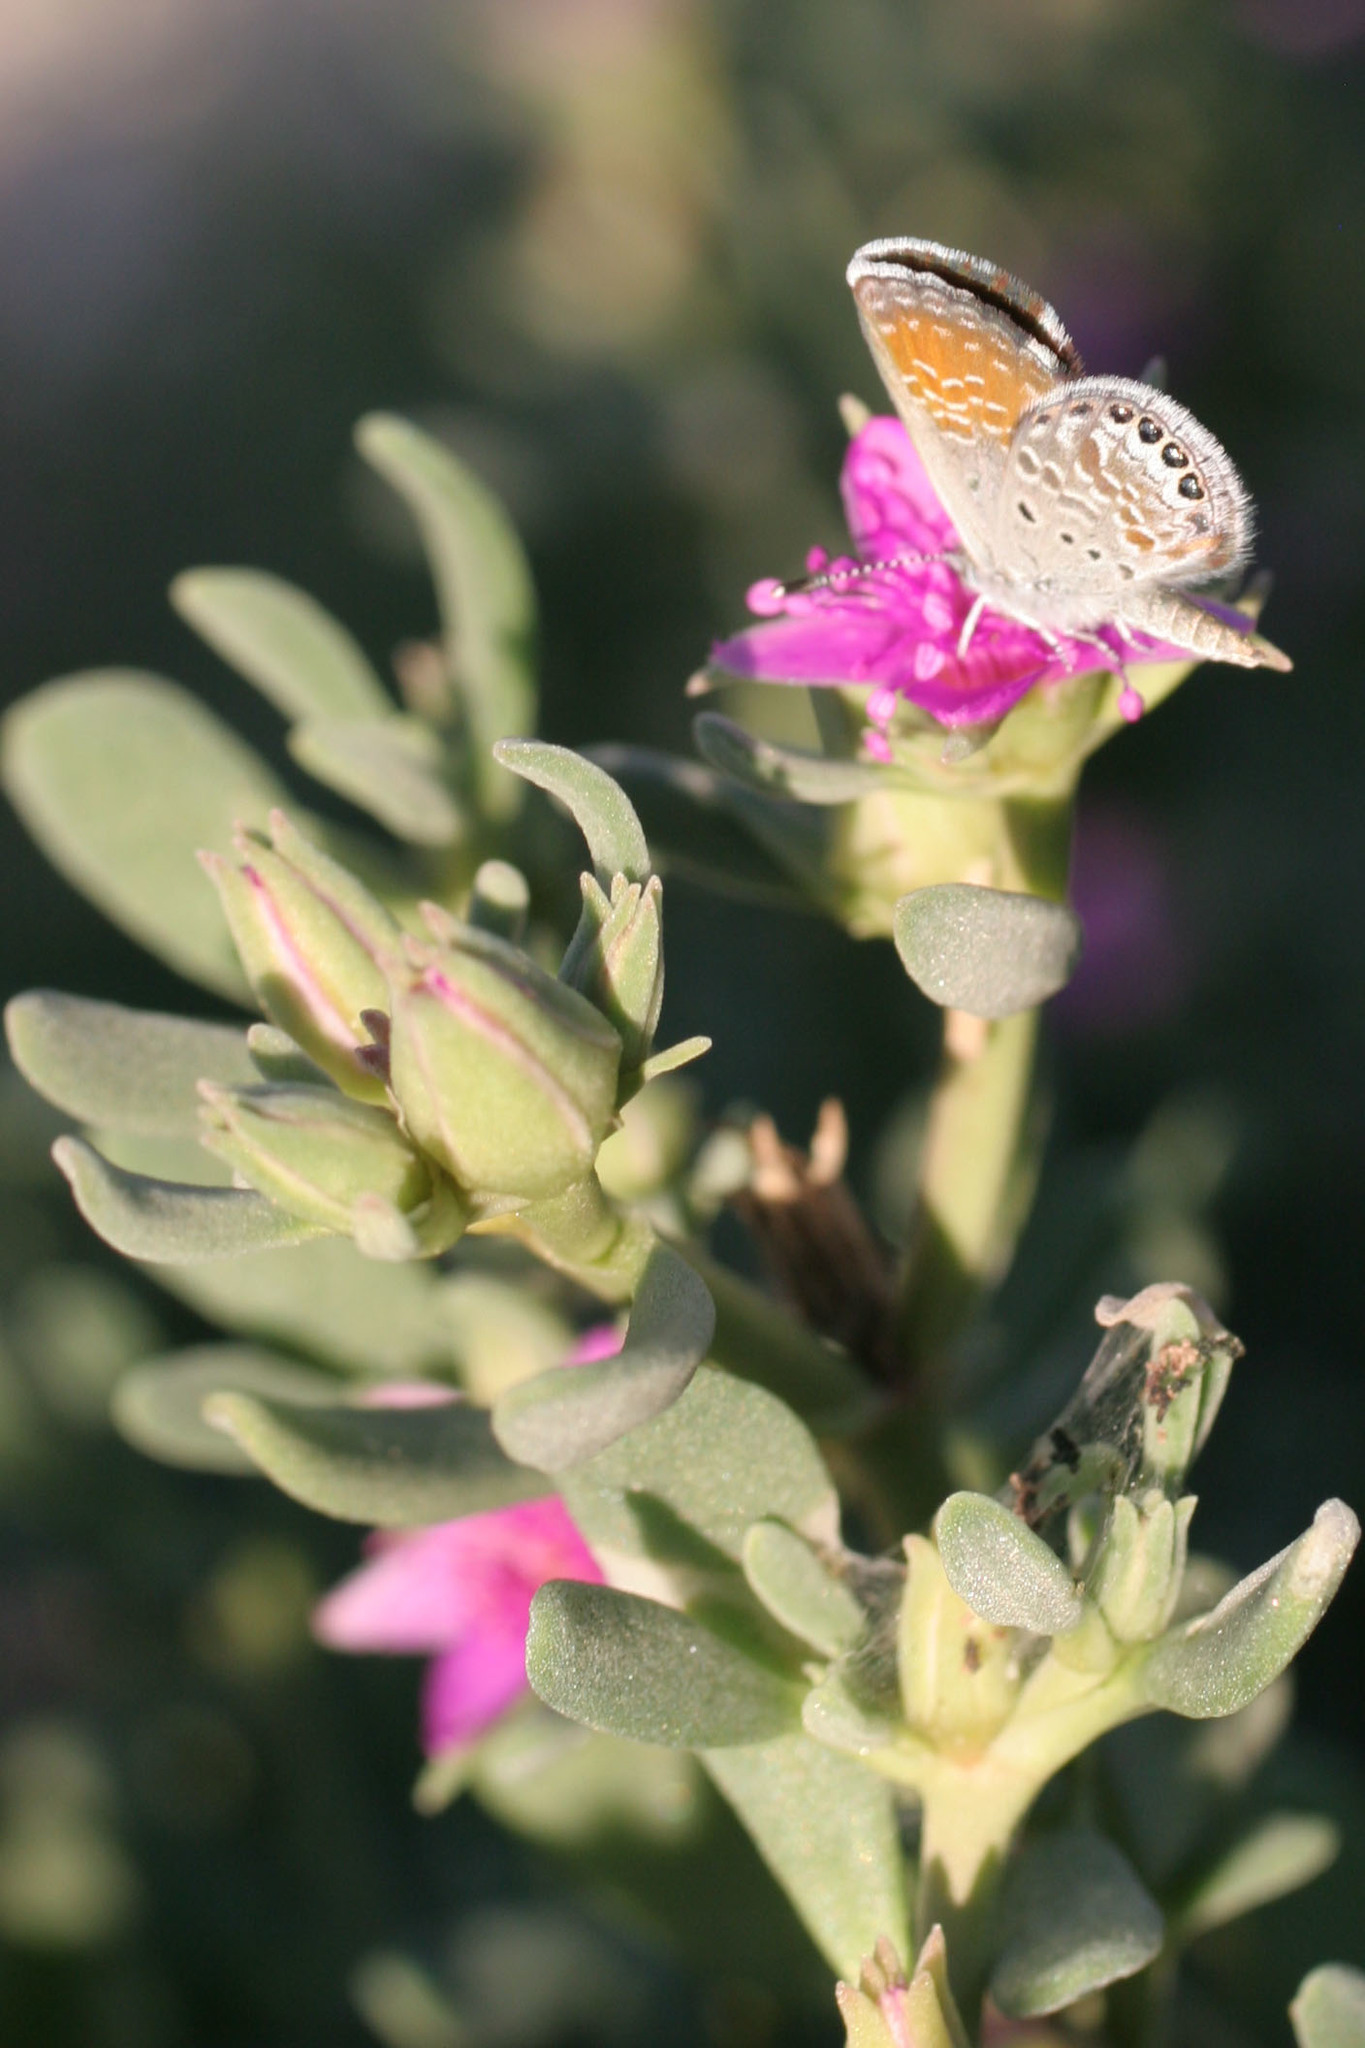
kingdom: Plantae
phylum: Tracheophyta
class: Magnoliopsida
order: Caryophyllales
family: Aizoaceae
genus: Sesuvium
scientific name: Sesuvium revolutifolium
